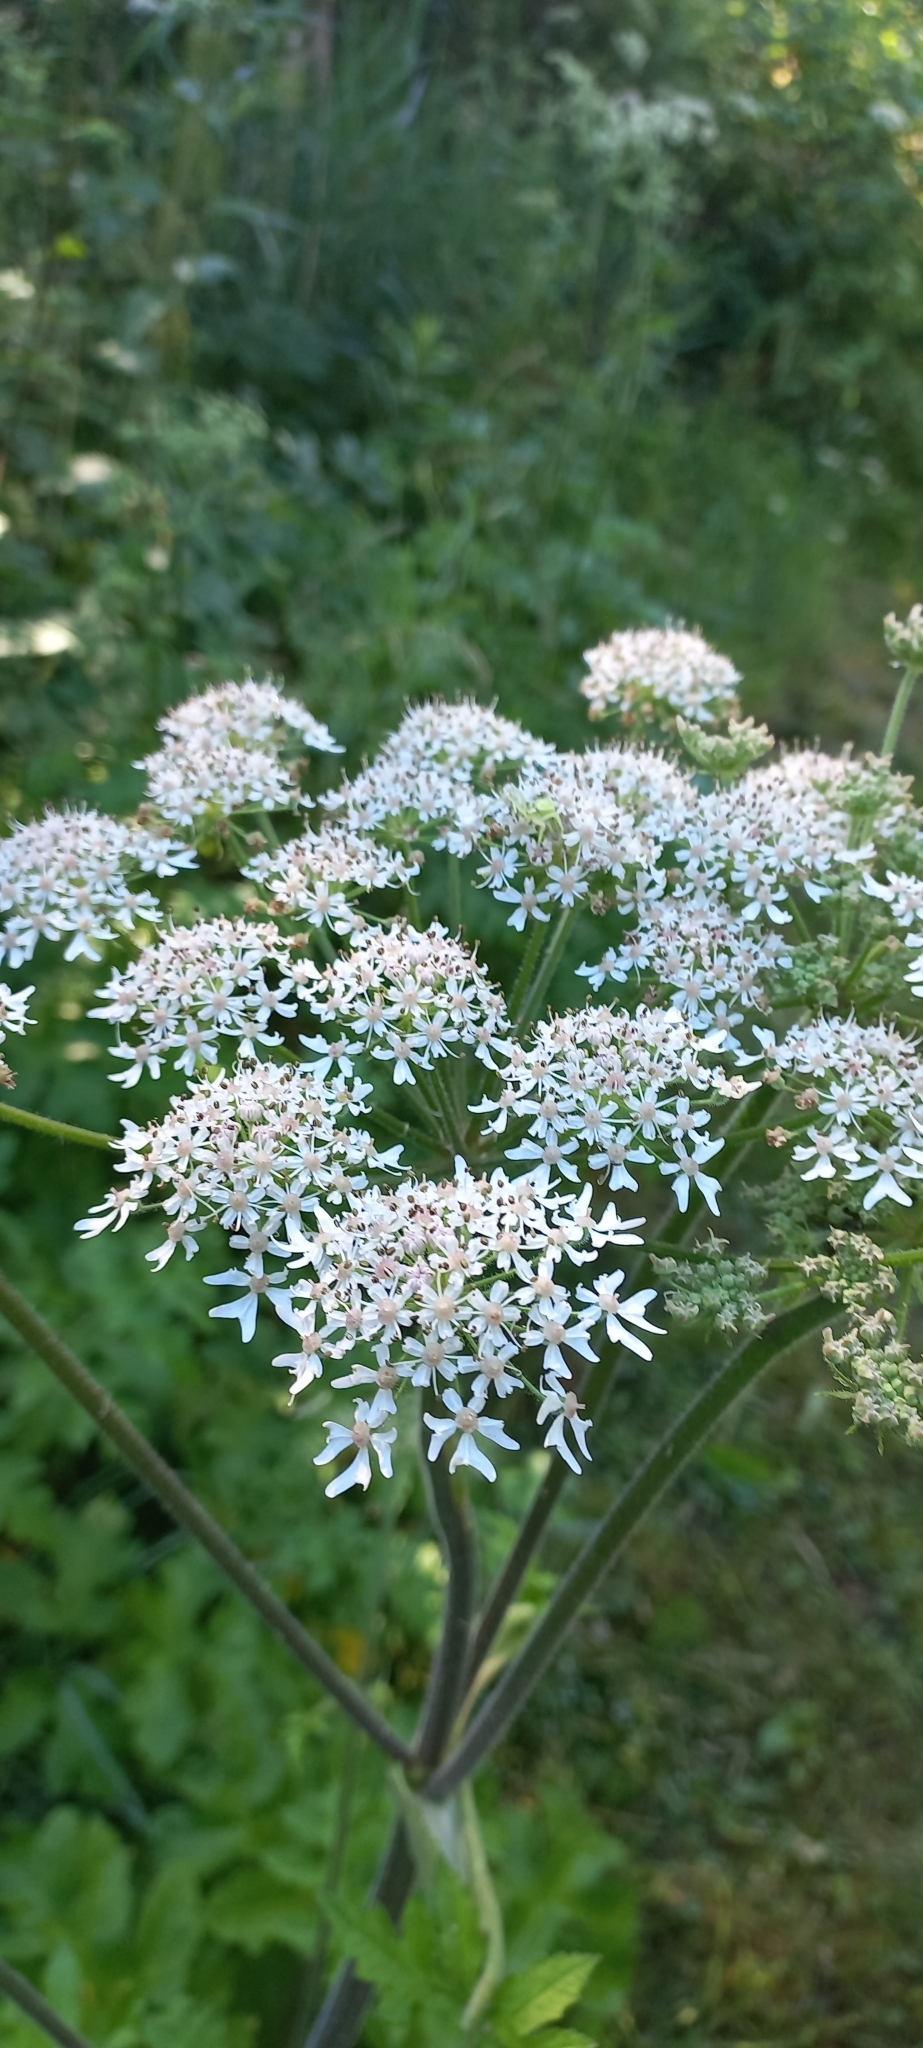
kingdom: Plantae
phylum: Tracheophyta
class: Magnoliopsida
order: Apiales
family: Apiaceae
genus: Heracleum
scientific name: Heracleum sphondylium
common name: Hogweed
